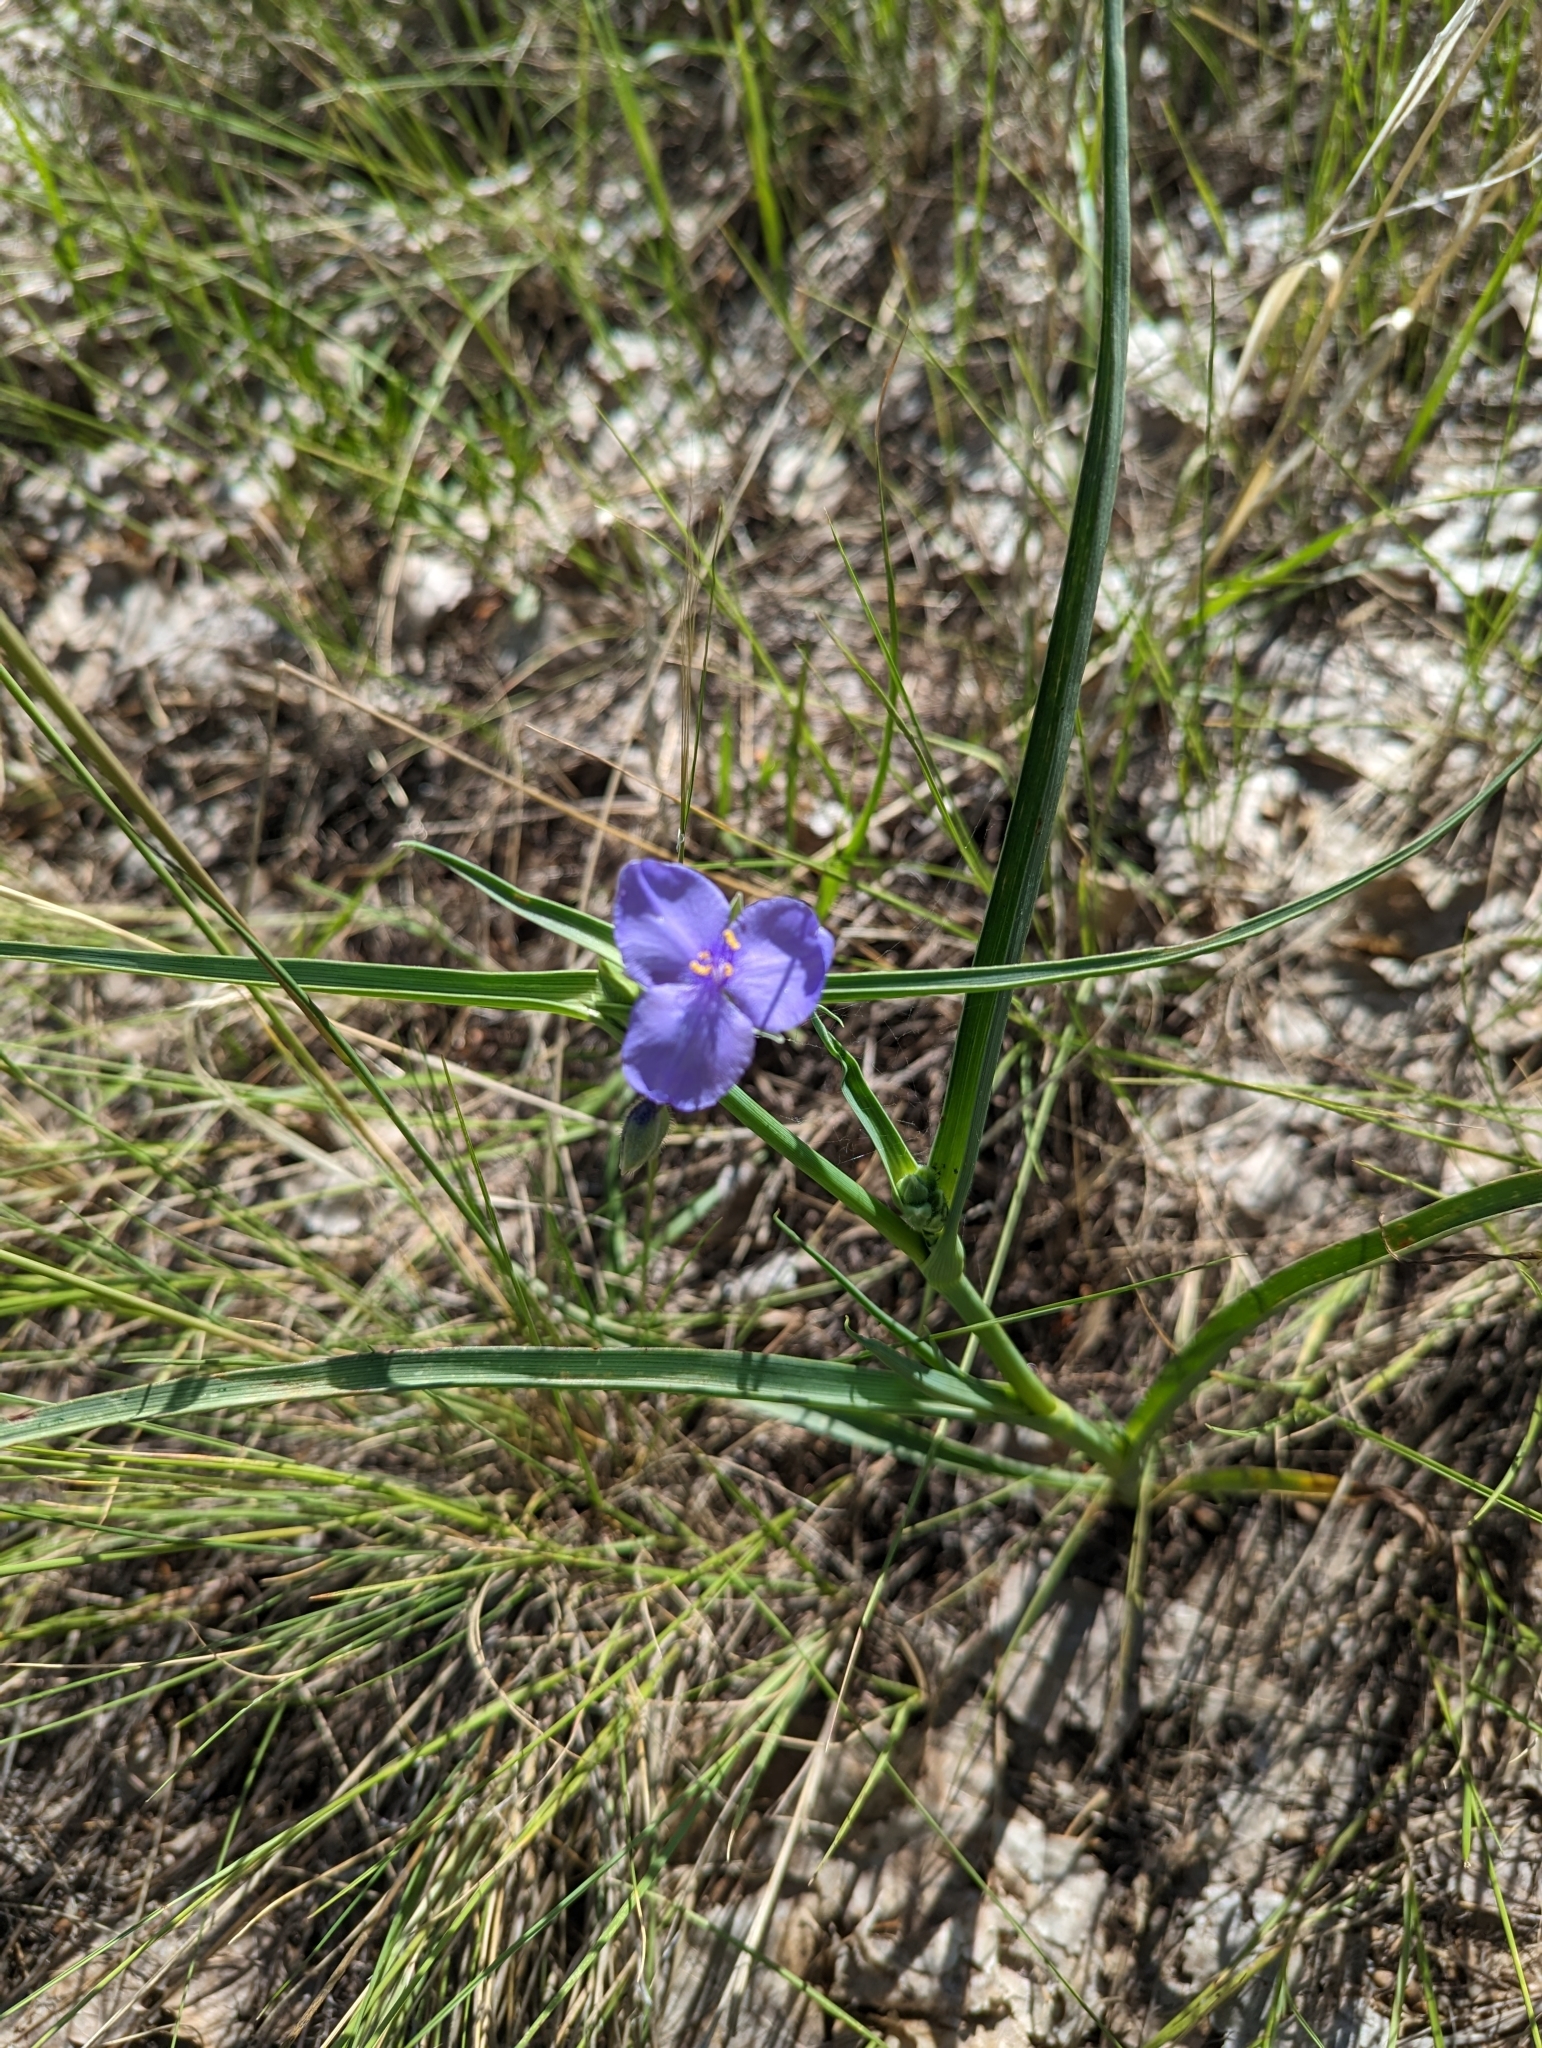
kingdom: Plantae
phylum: Tracheophyta
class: Liliopsida
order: Commelinales
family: Commelinaceae
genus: Tradescantia
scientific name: Tradescantia occidentalis
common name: Prairie spiderwort
